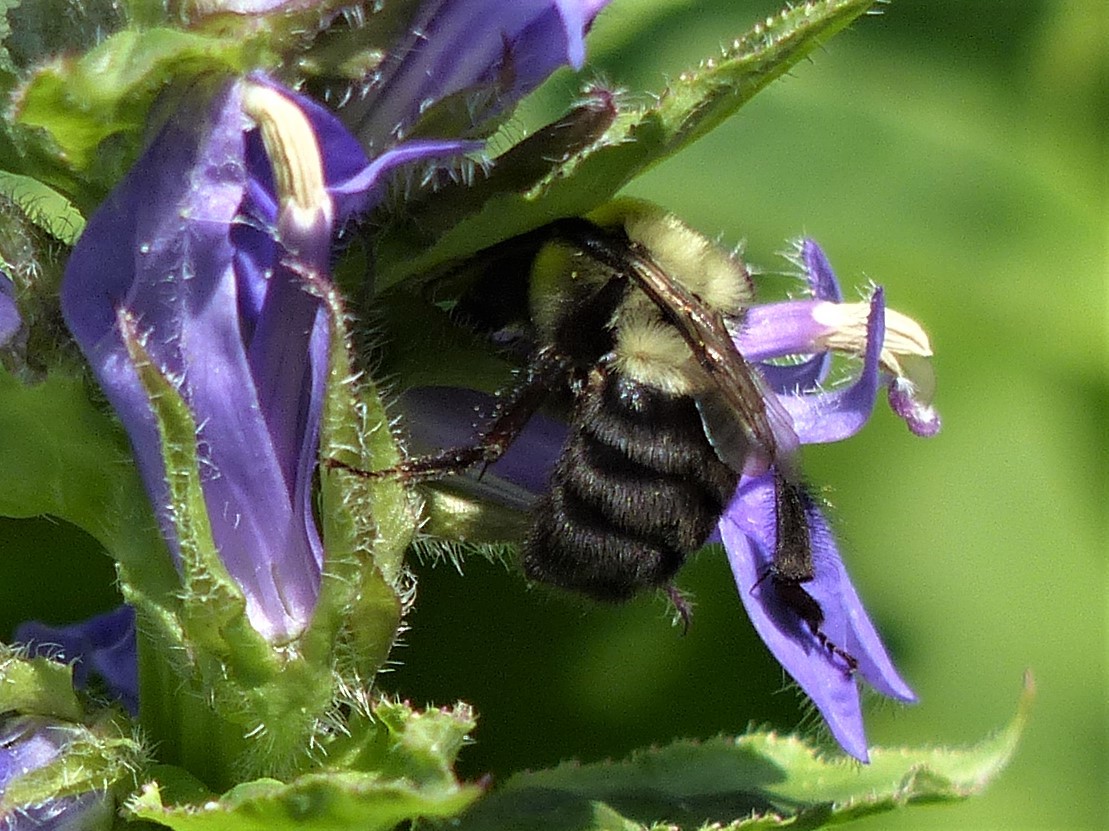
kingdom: Animalia
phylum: Arthropoda
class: Insecta
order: Hymenoptera
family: Apidae
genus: Bombus
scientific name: Bombus impatiens
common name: Common eastern bumble bee
